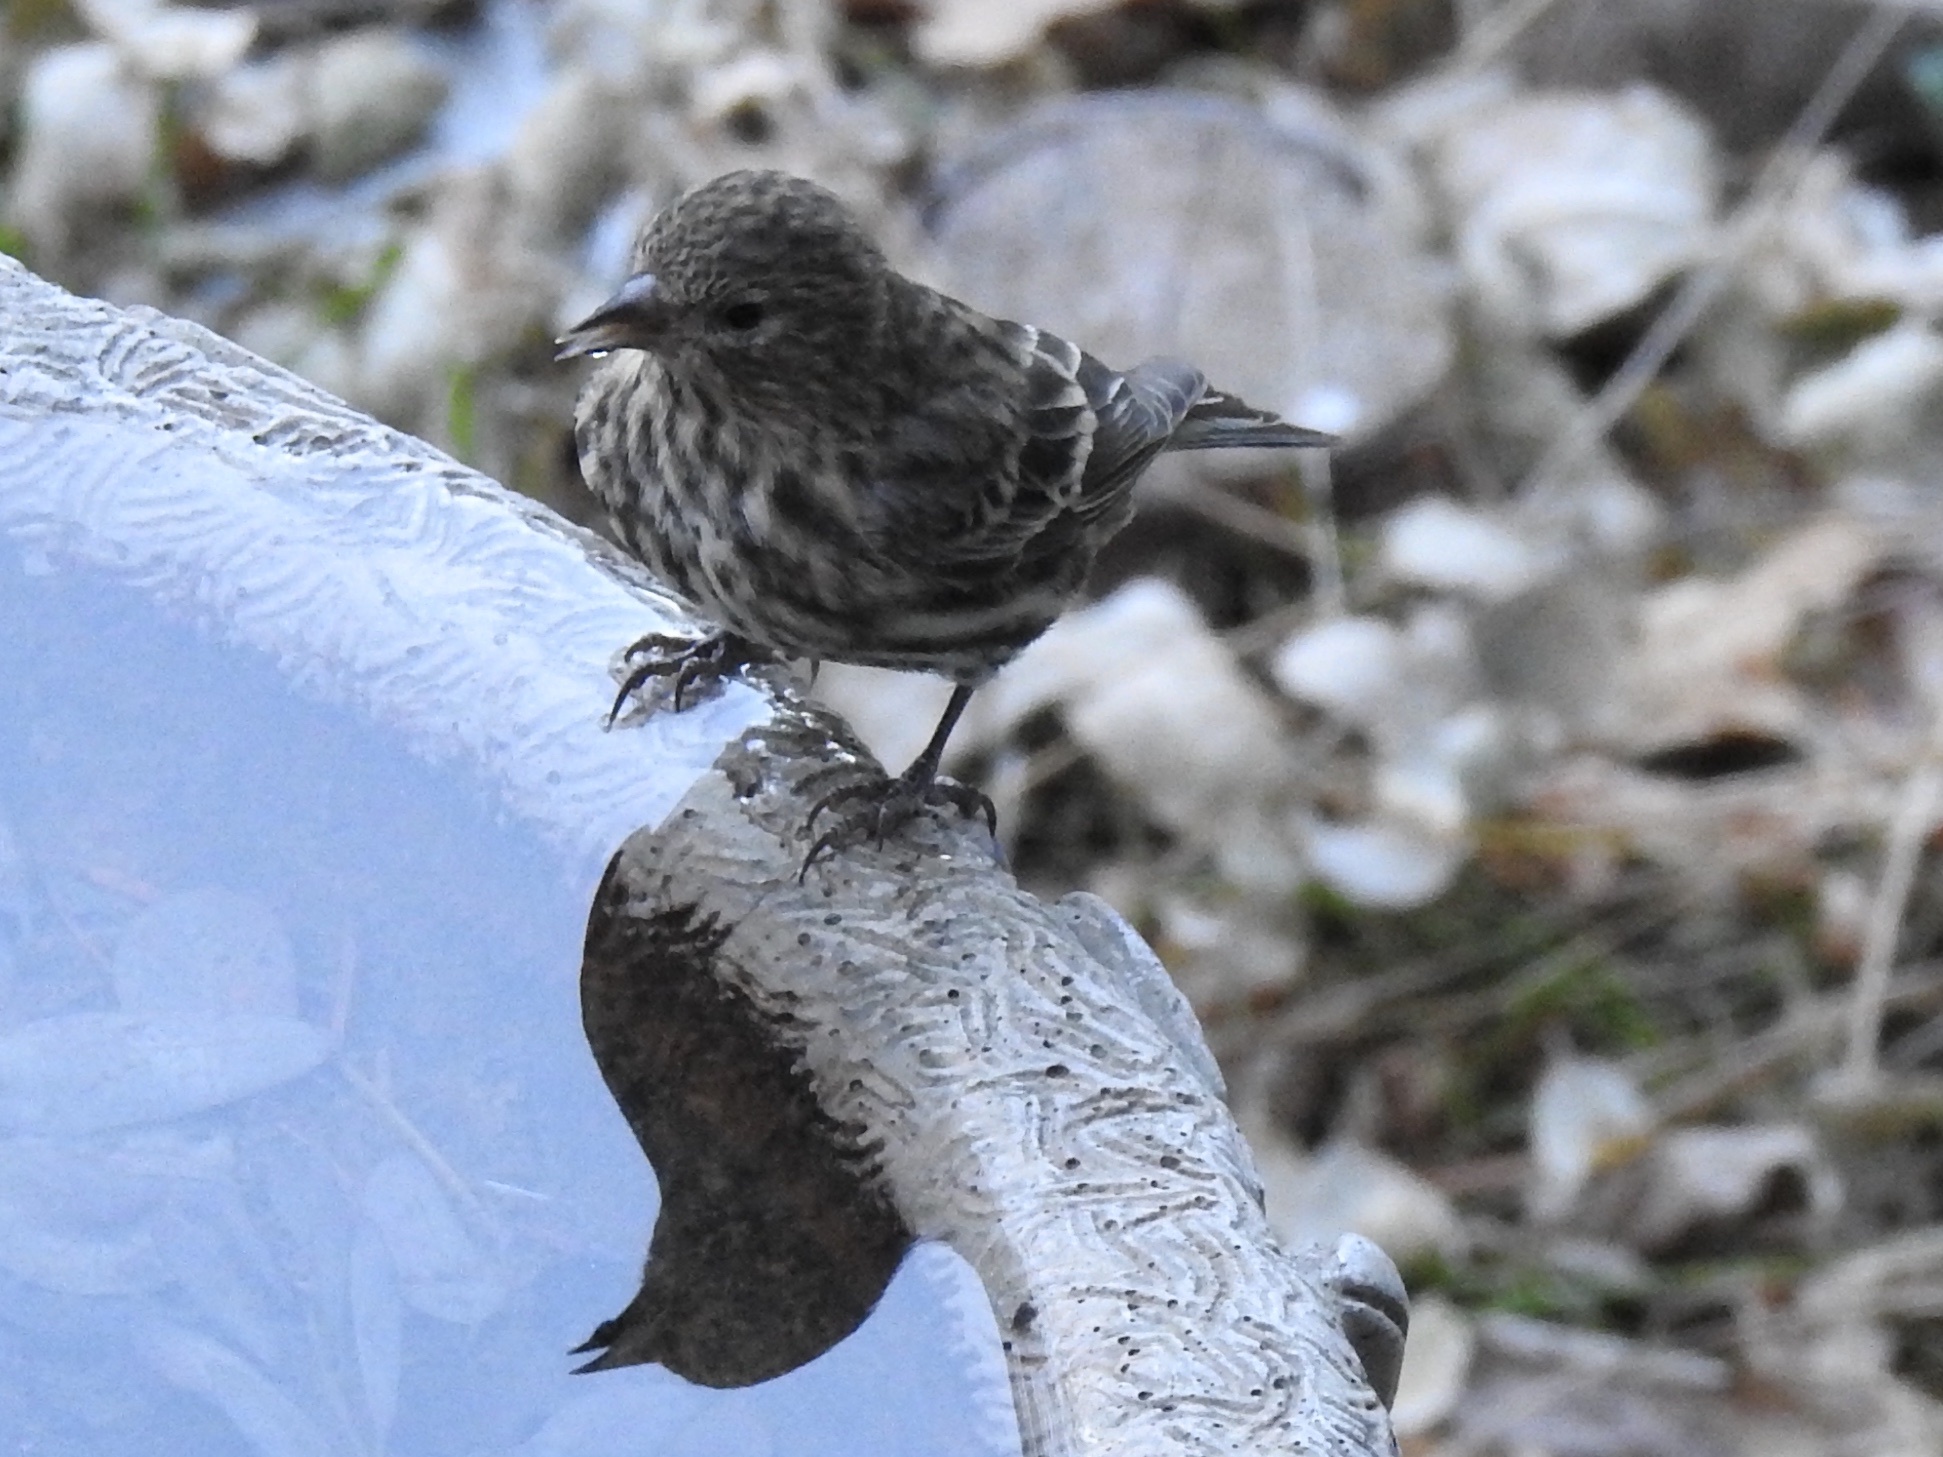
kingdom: Animalia
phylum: Chordata
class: Aves
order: Passeriformes
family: Fringillidae
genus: Spinus
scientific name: Spinus pinus
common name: Pine siskin
